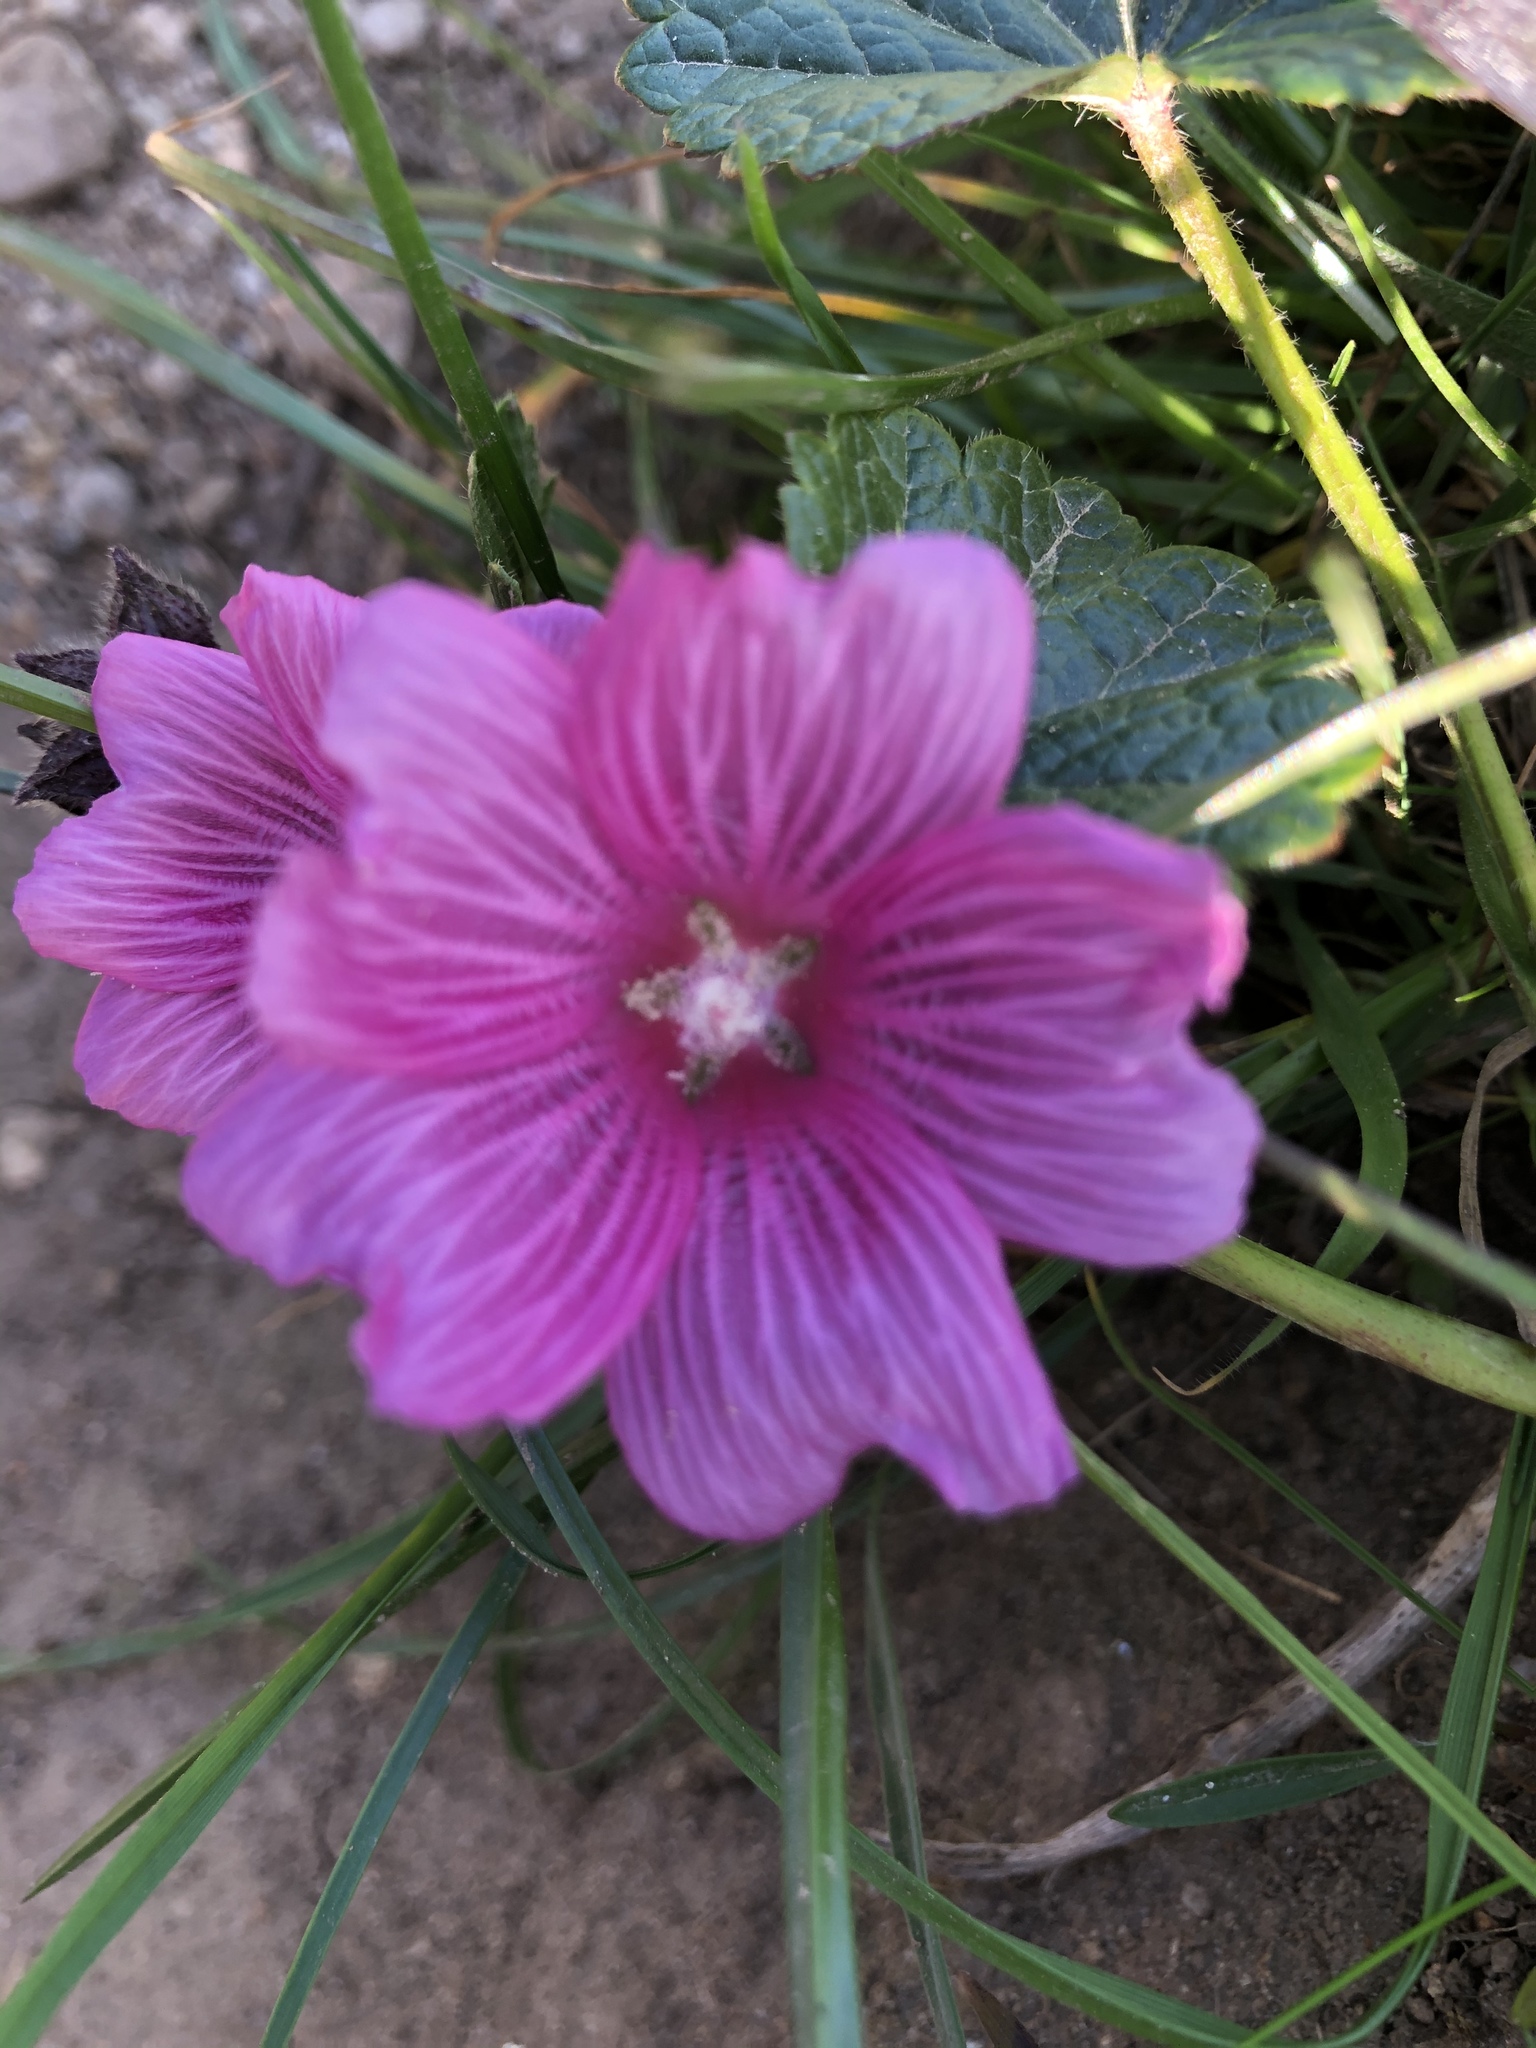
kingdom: Plantae
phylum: Tracheophyta
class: Magnoliopsida
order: Malvales
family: Malvaceae
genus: Sidalcea
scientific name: Sidalcea malviflora
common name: Greek mallow
